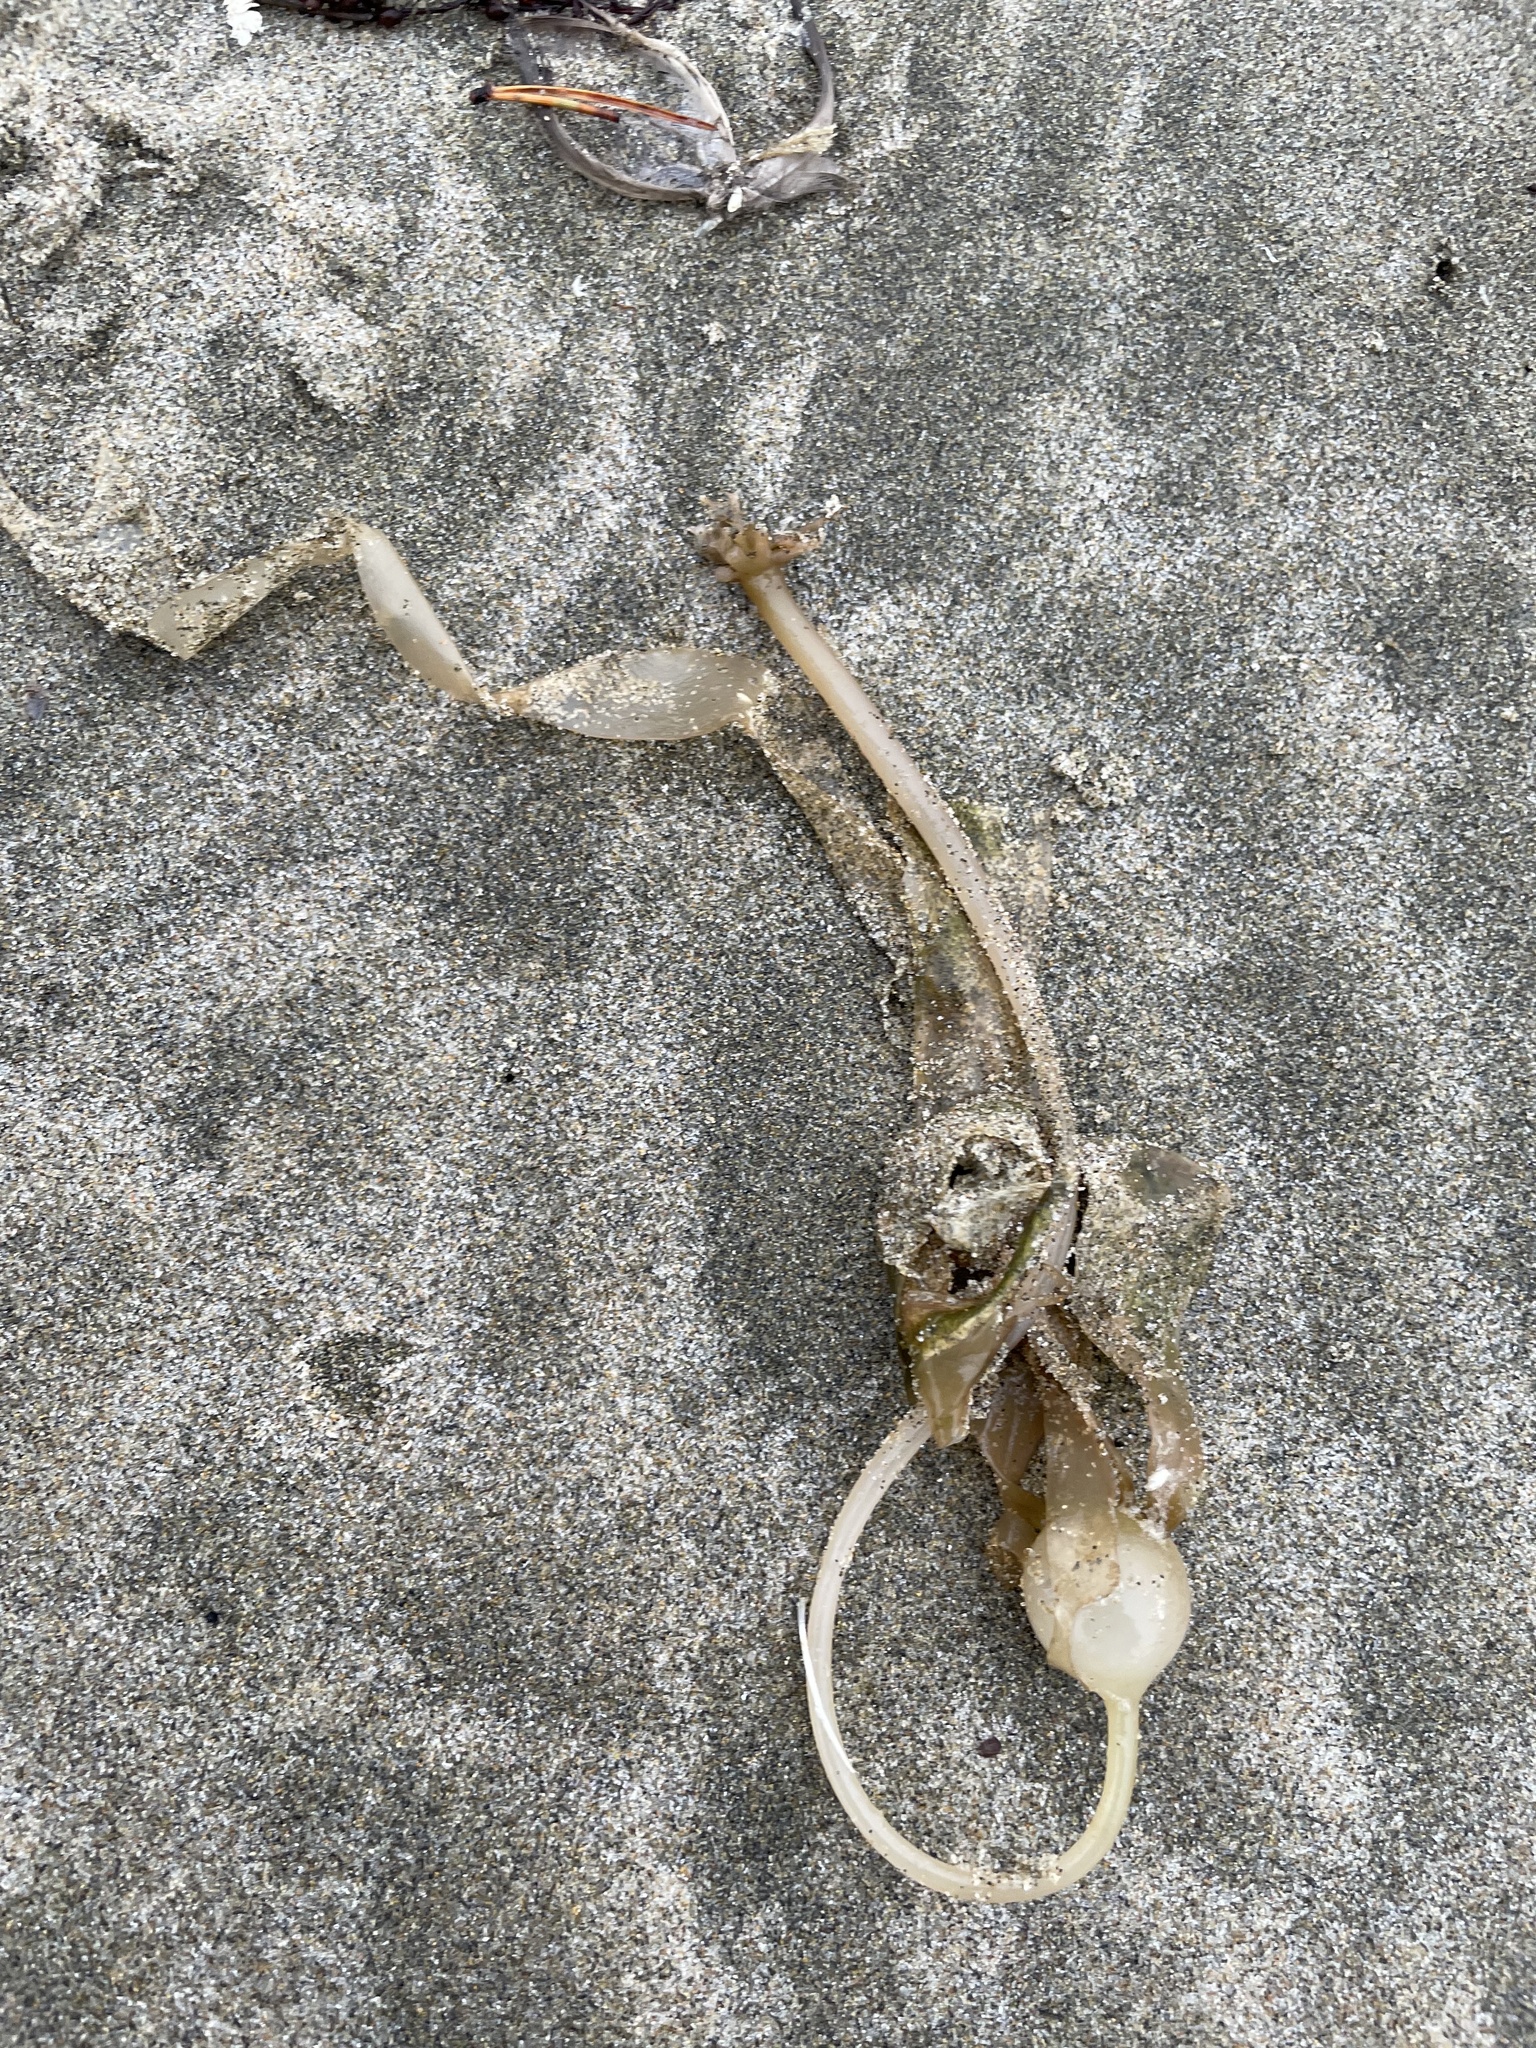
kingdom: Chromista
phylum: Ochrophyta
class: Phaeophyceae
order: Laminariales
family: Laminariaceae
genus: Nereocystis
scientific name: Nereocystis luetkeana
